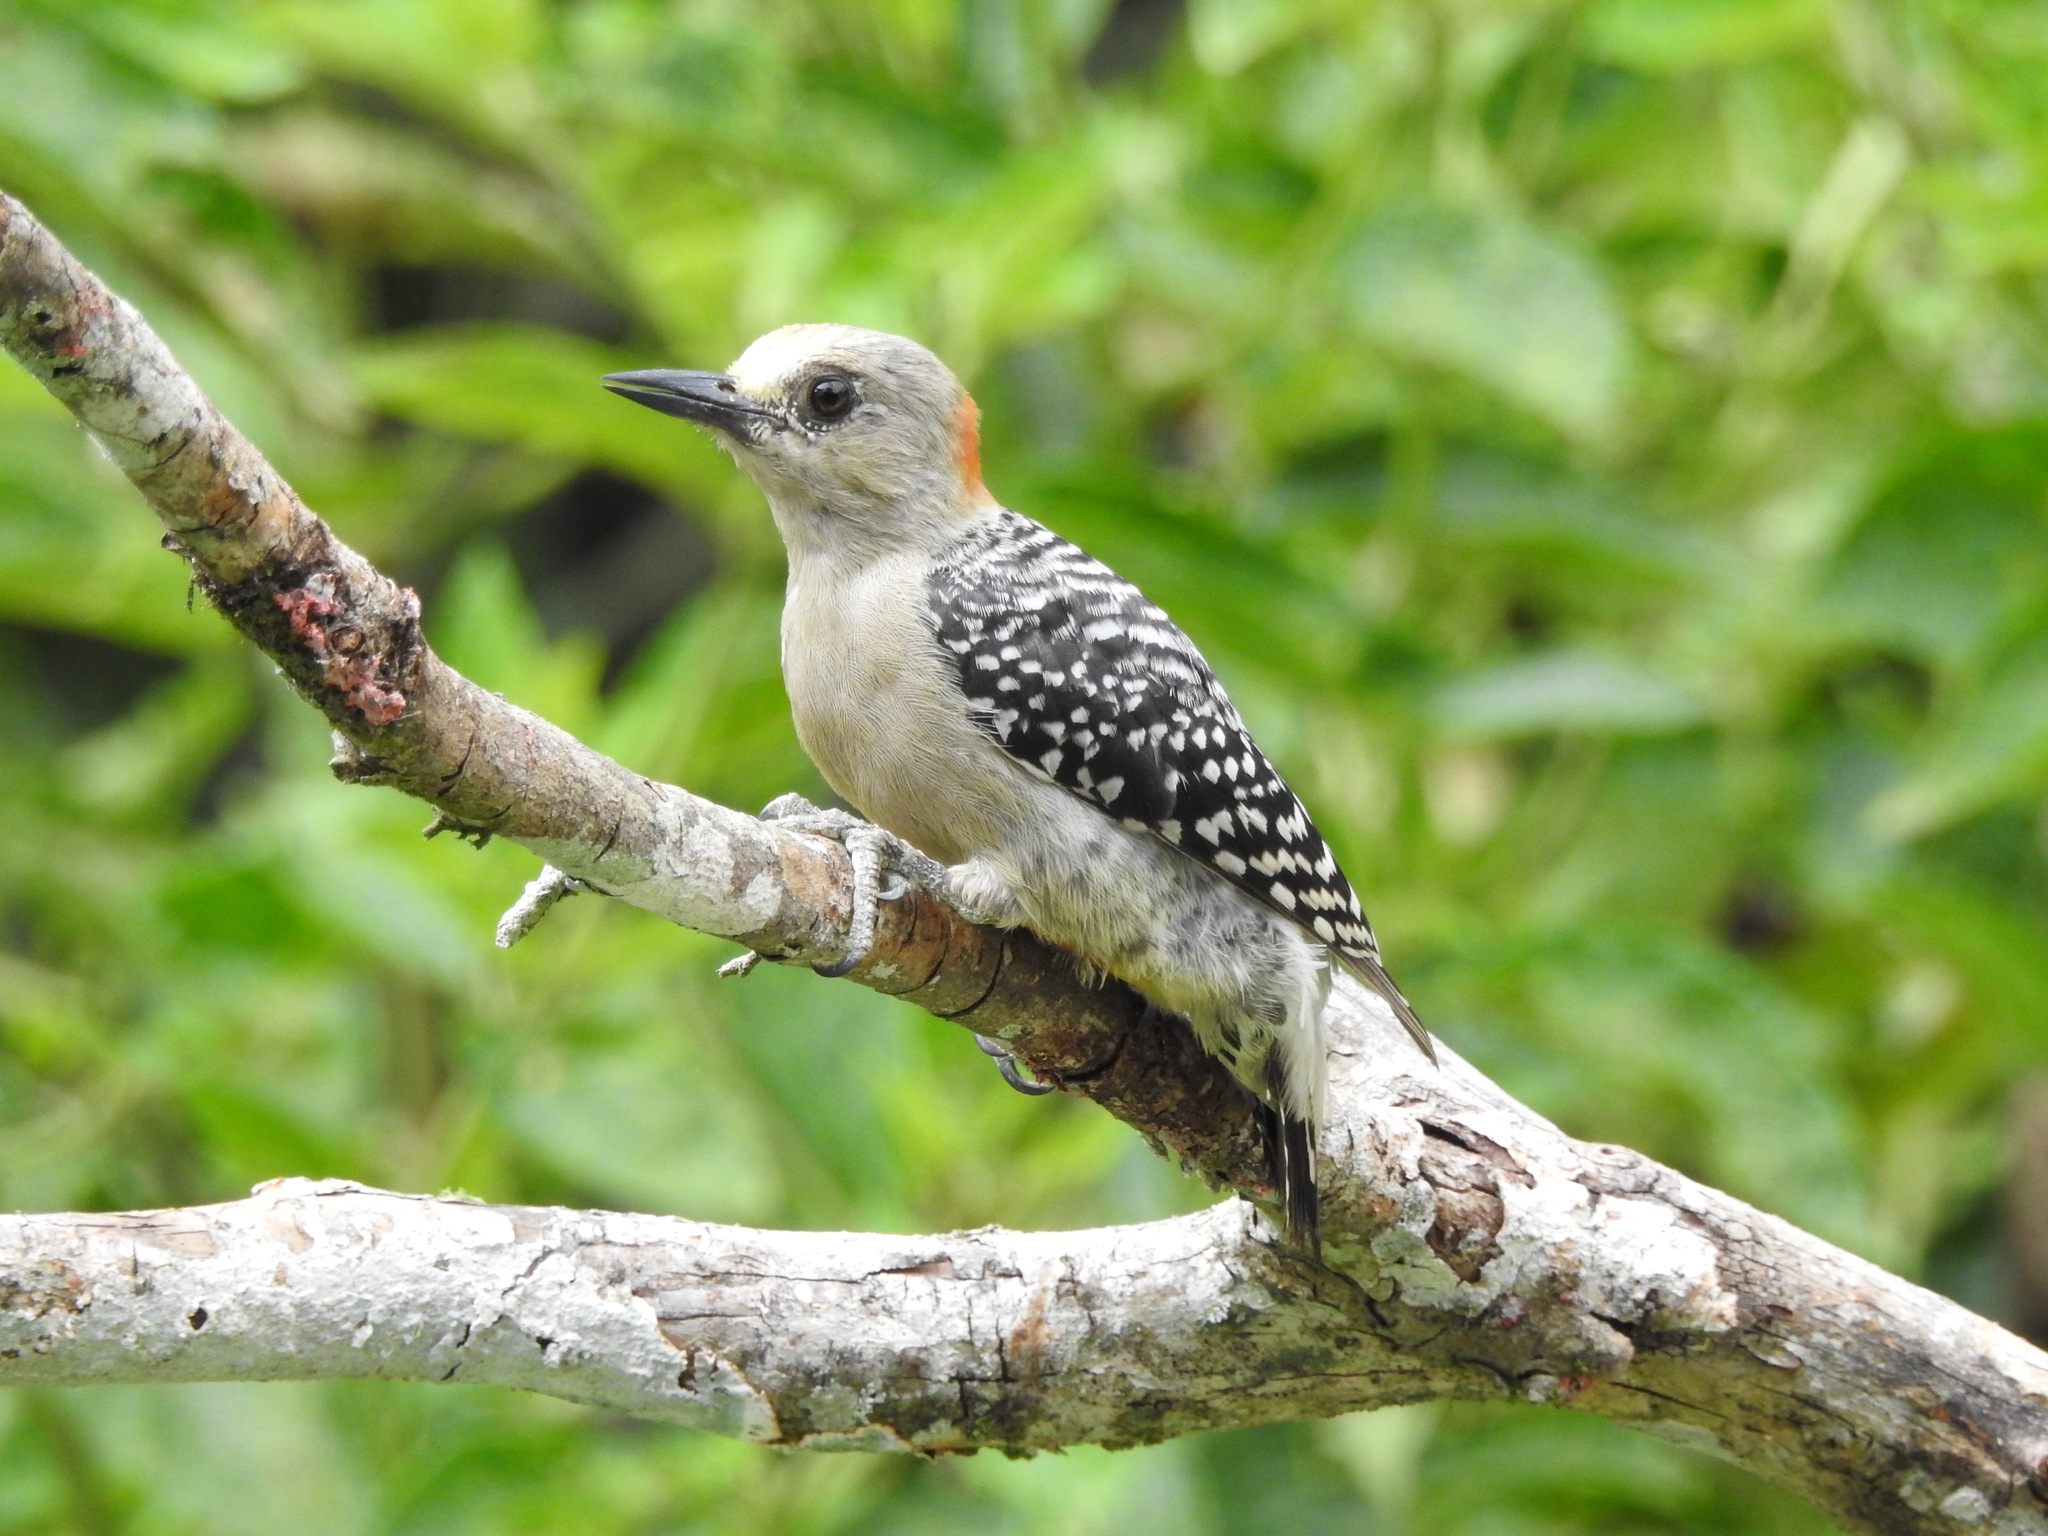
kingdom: Animalia
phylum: Chordata
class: Aves
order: Piciformes
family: Picidae
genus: Melanerpes
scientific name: Melanerpes rubricapillus
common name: Red-crowned woodpecker
